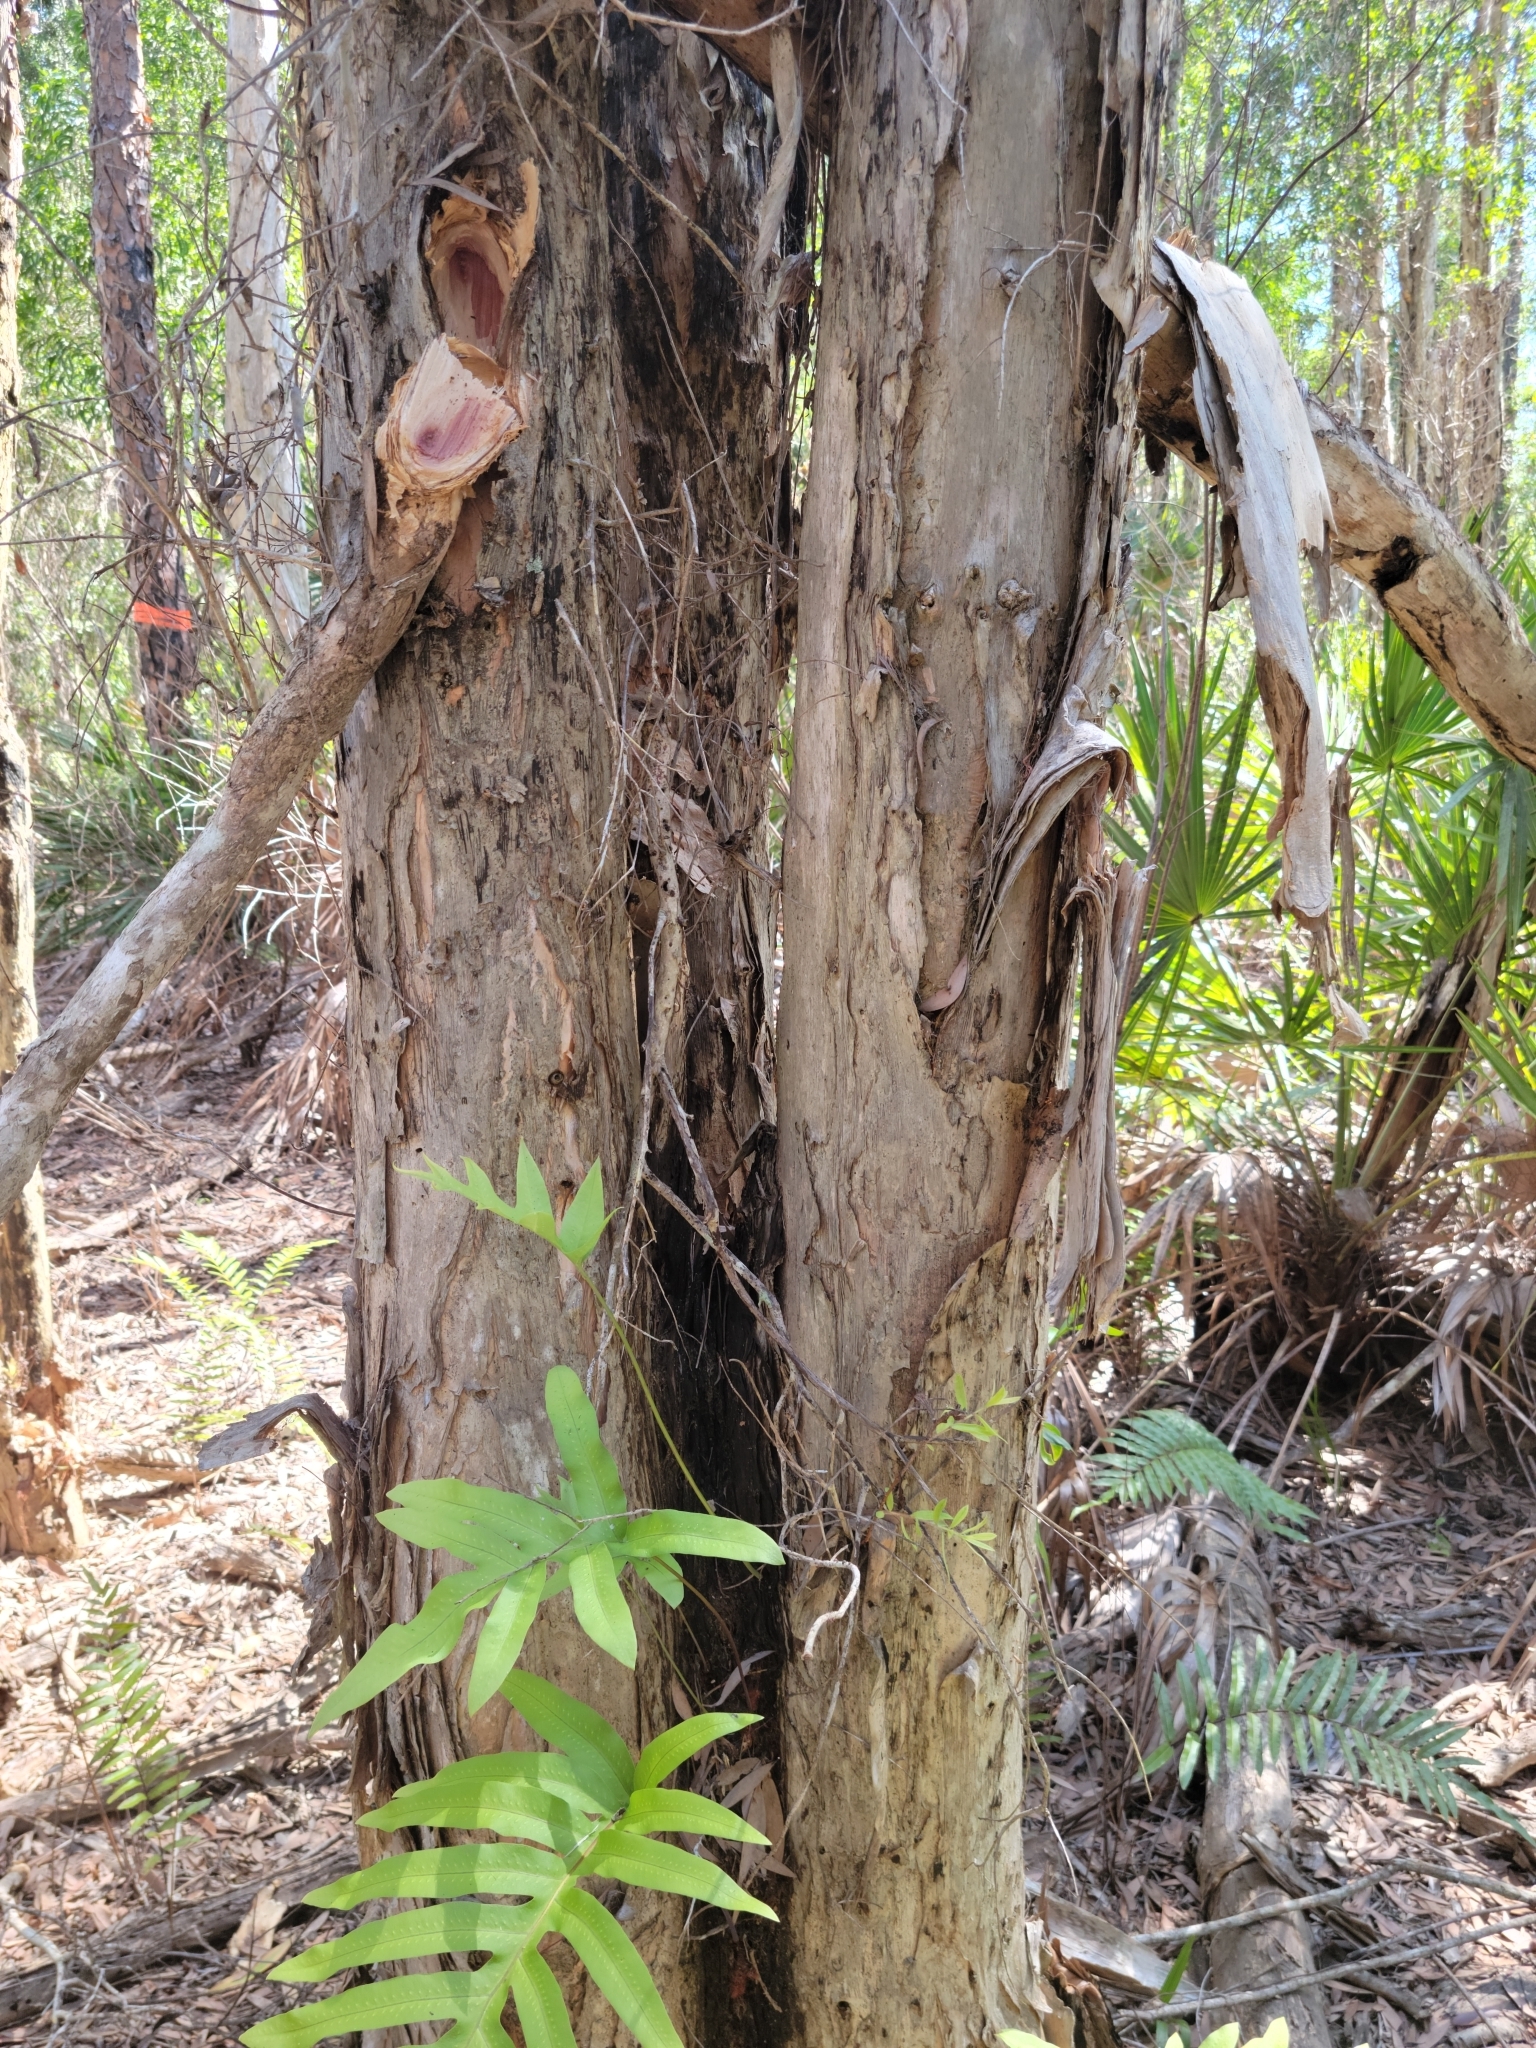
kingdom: Plantae
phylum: Tracheophyta
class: Magnoliopsida
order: Myrtales
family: Myrtaceae
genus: Melaleuca
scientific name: Melaleuca quinquenervia
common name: Punktree
